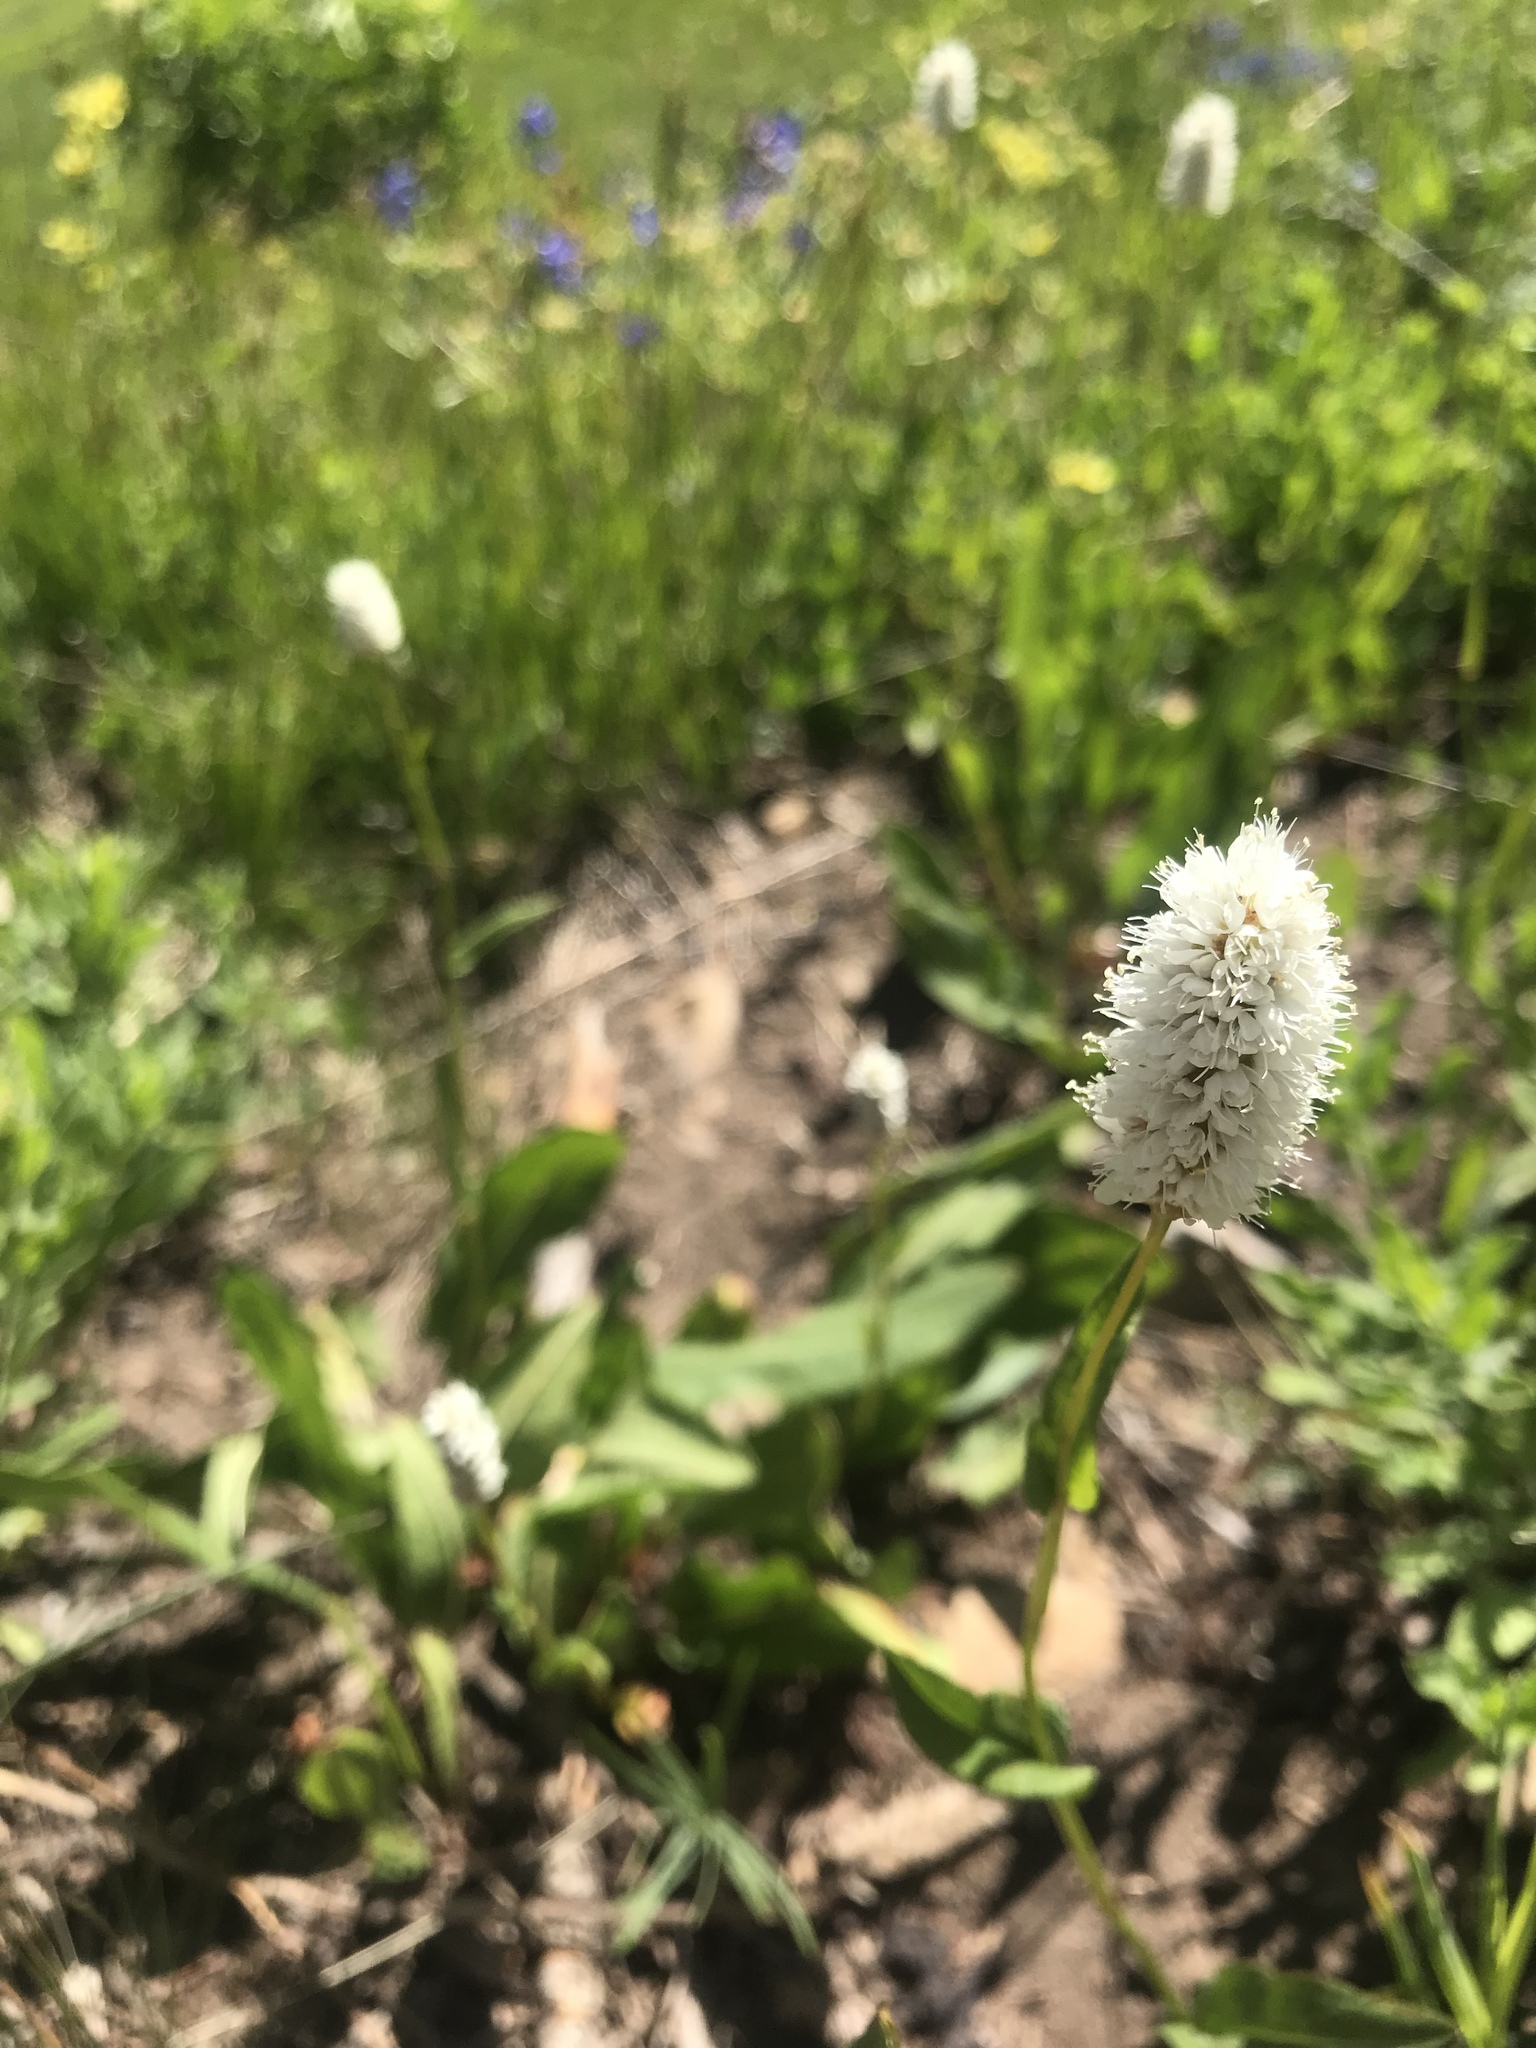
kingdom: Plantae
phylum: Tracheophyta
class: Magnoliopsida
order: Caryophyllales
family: Polygonaceae
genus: Bistorta
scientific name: Bistorta bistortoides
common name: American bistort
